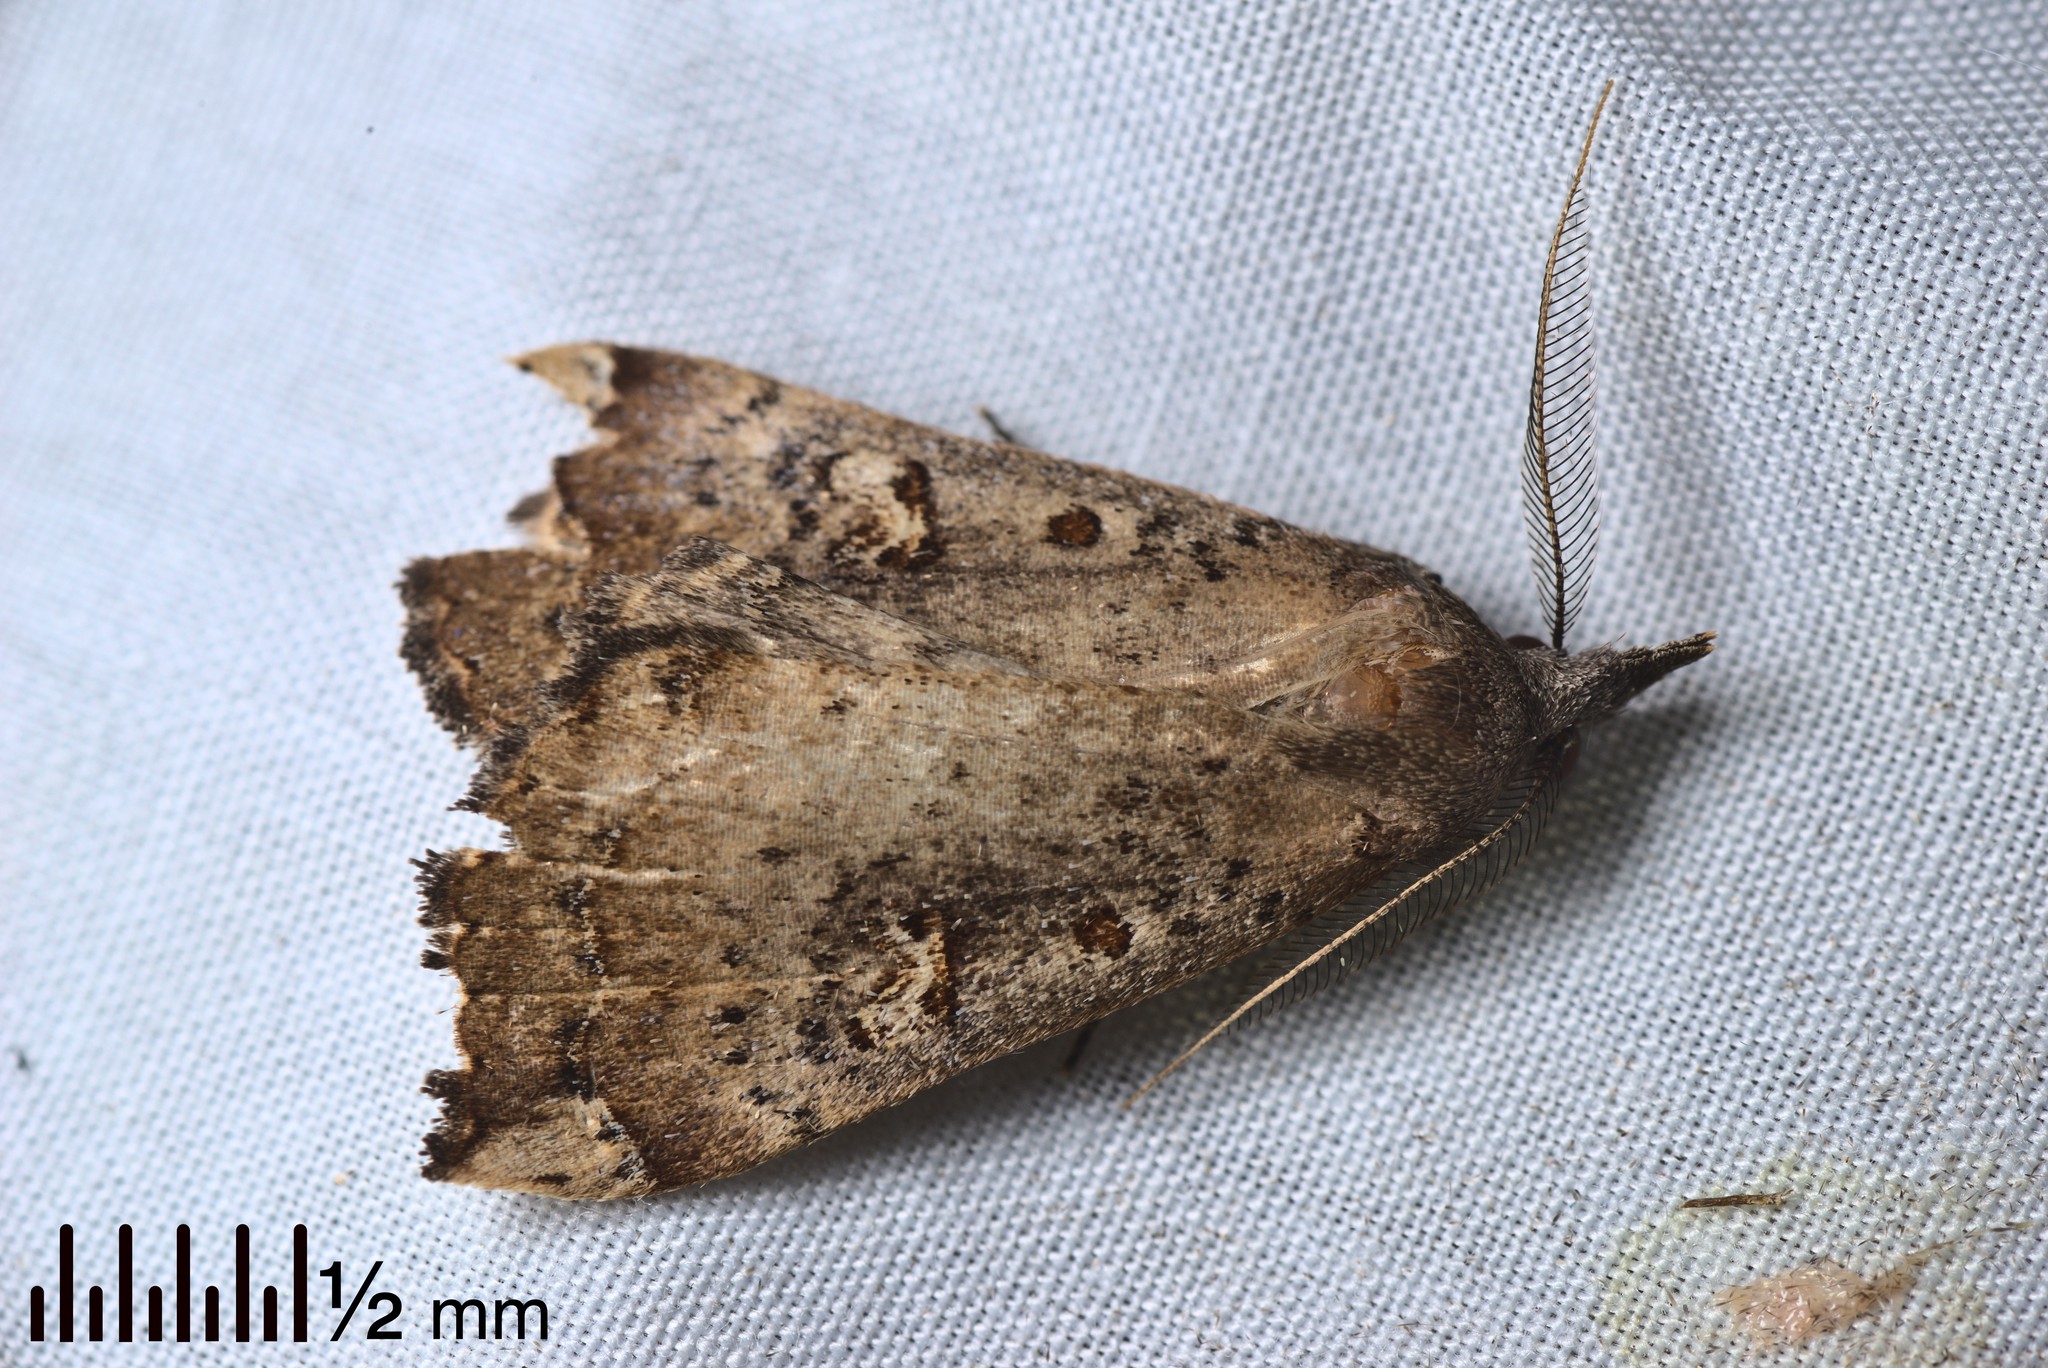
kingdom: Animalia
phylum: Arthropoda
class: Insecta
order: Lepidoptera
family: Erebidae
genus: Rhapsa
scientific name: Rhapsa scotosialis
